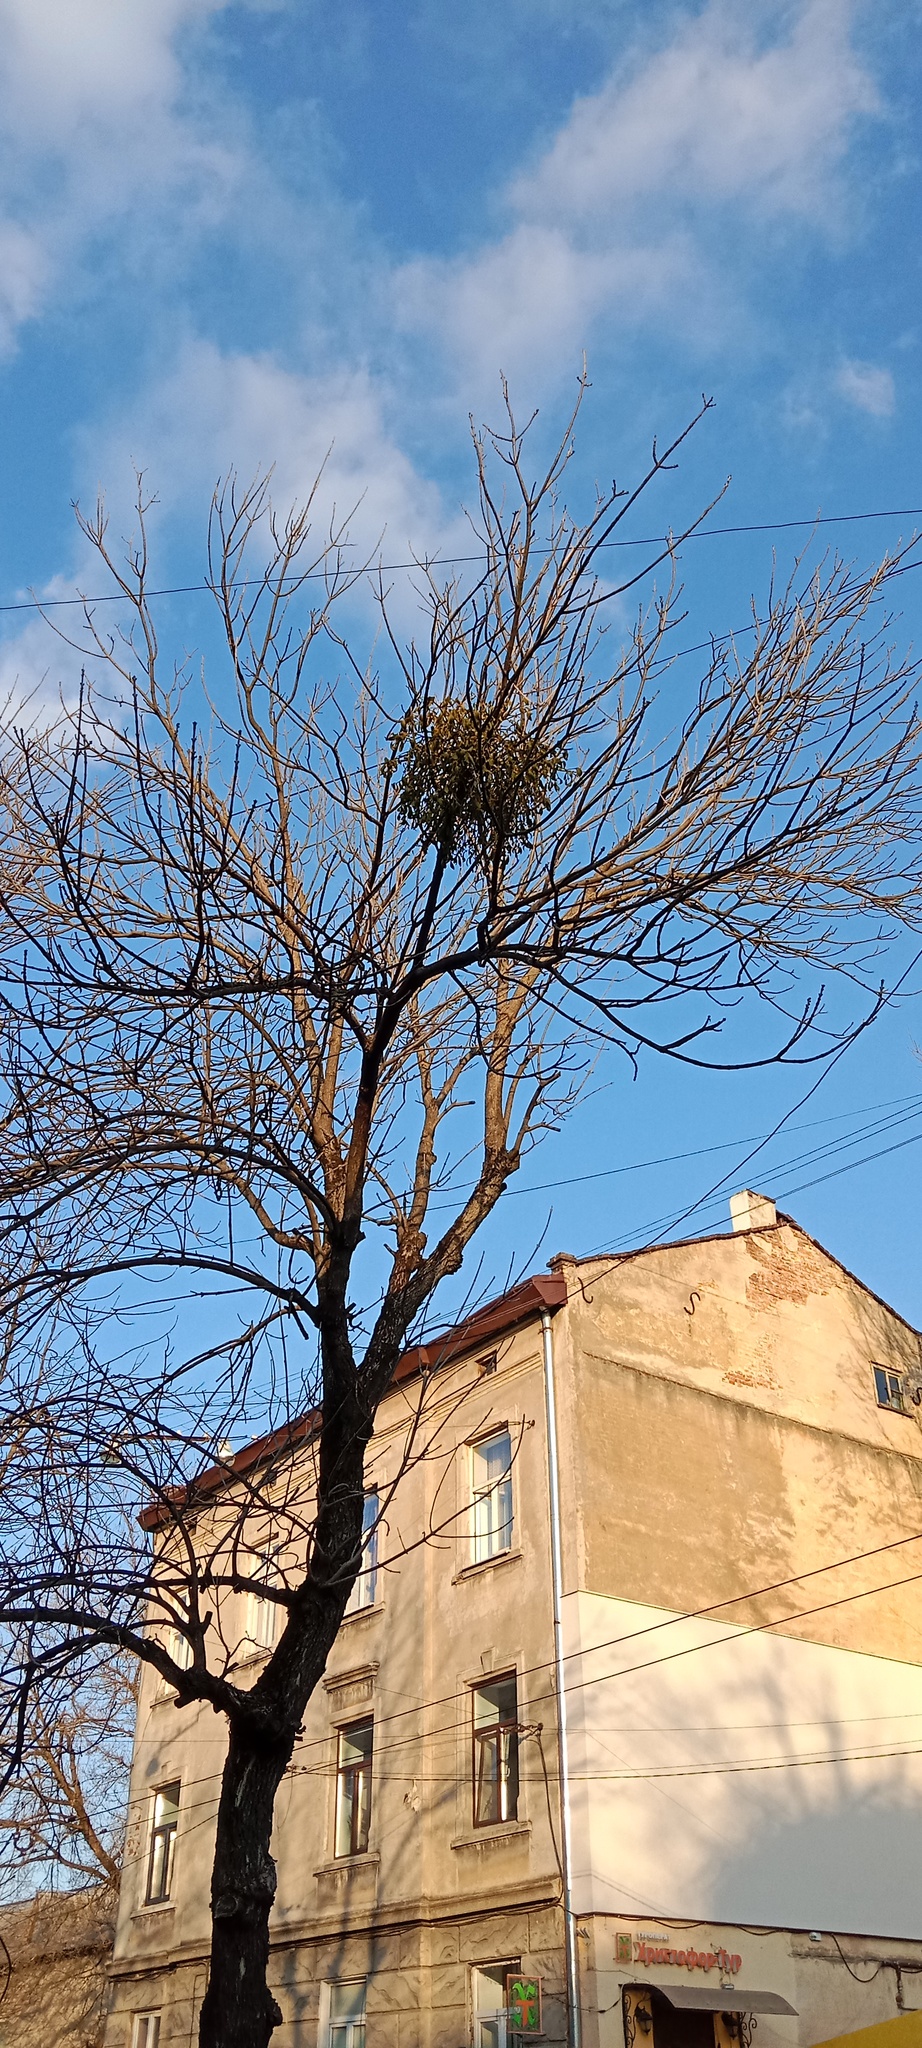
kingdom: Plantae
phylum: Tracheophyta
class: Magnoliopsida
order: Santalales
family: Viscaceae
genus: Viscum
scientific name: Viscum album
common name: Mistletoe
